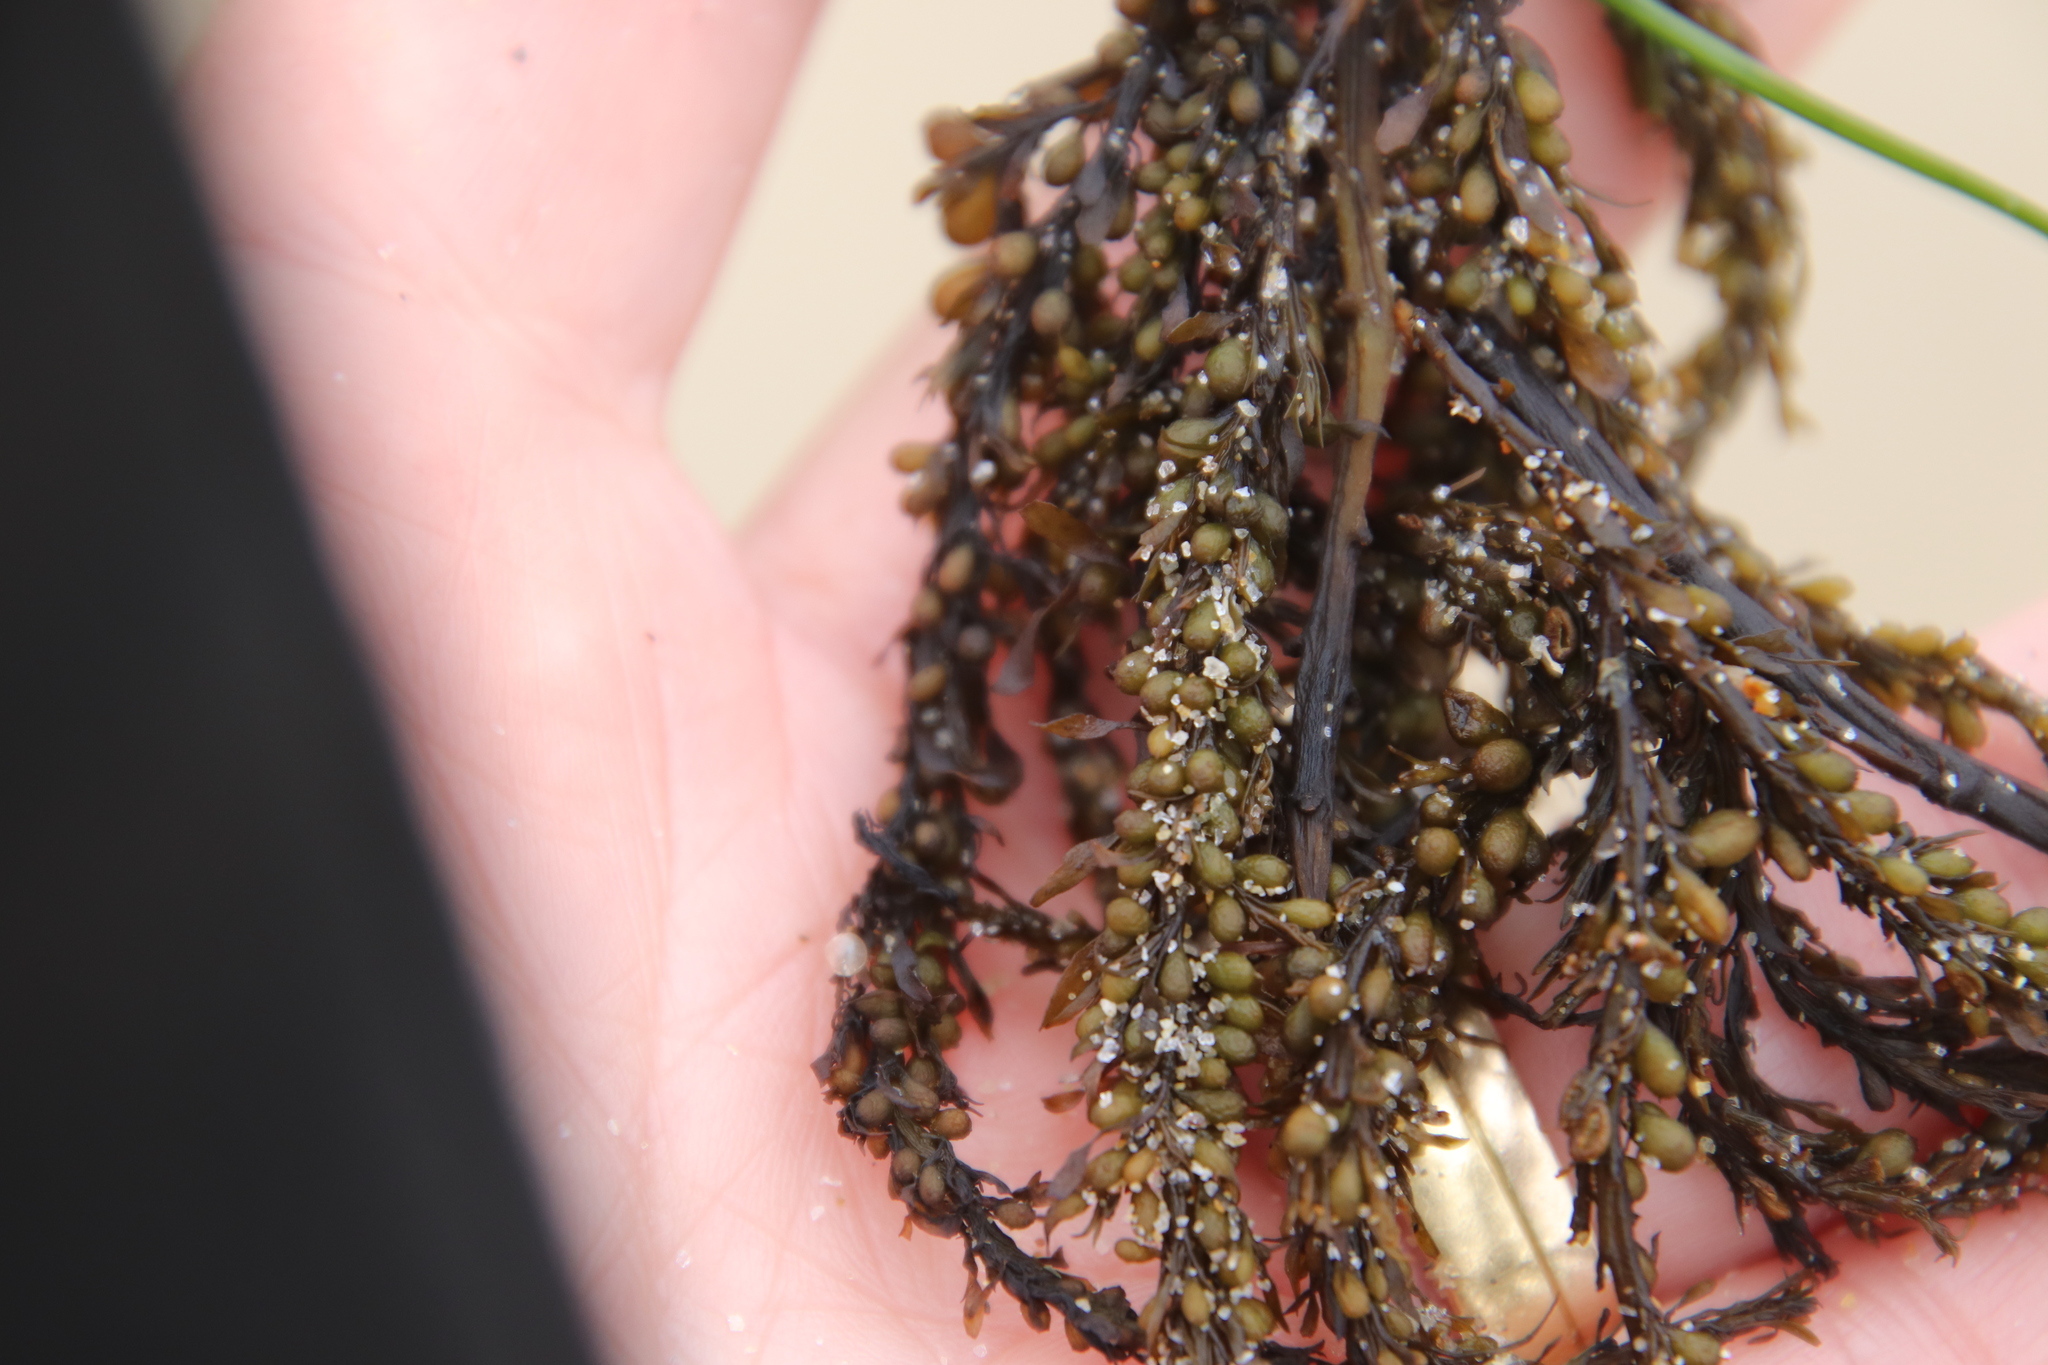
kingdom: Chromista
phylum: Ochrophyta
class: Phaeophyceae
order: Fucales
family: Sargassaceae
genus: Sargassum
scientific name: Sargassum muticum
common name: Japweed
